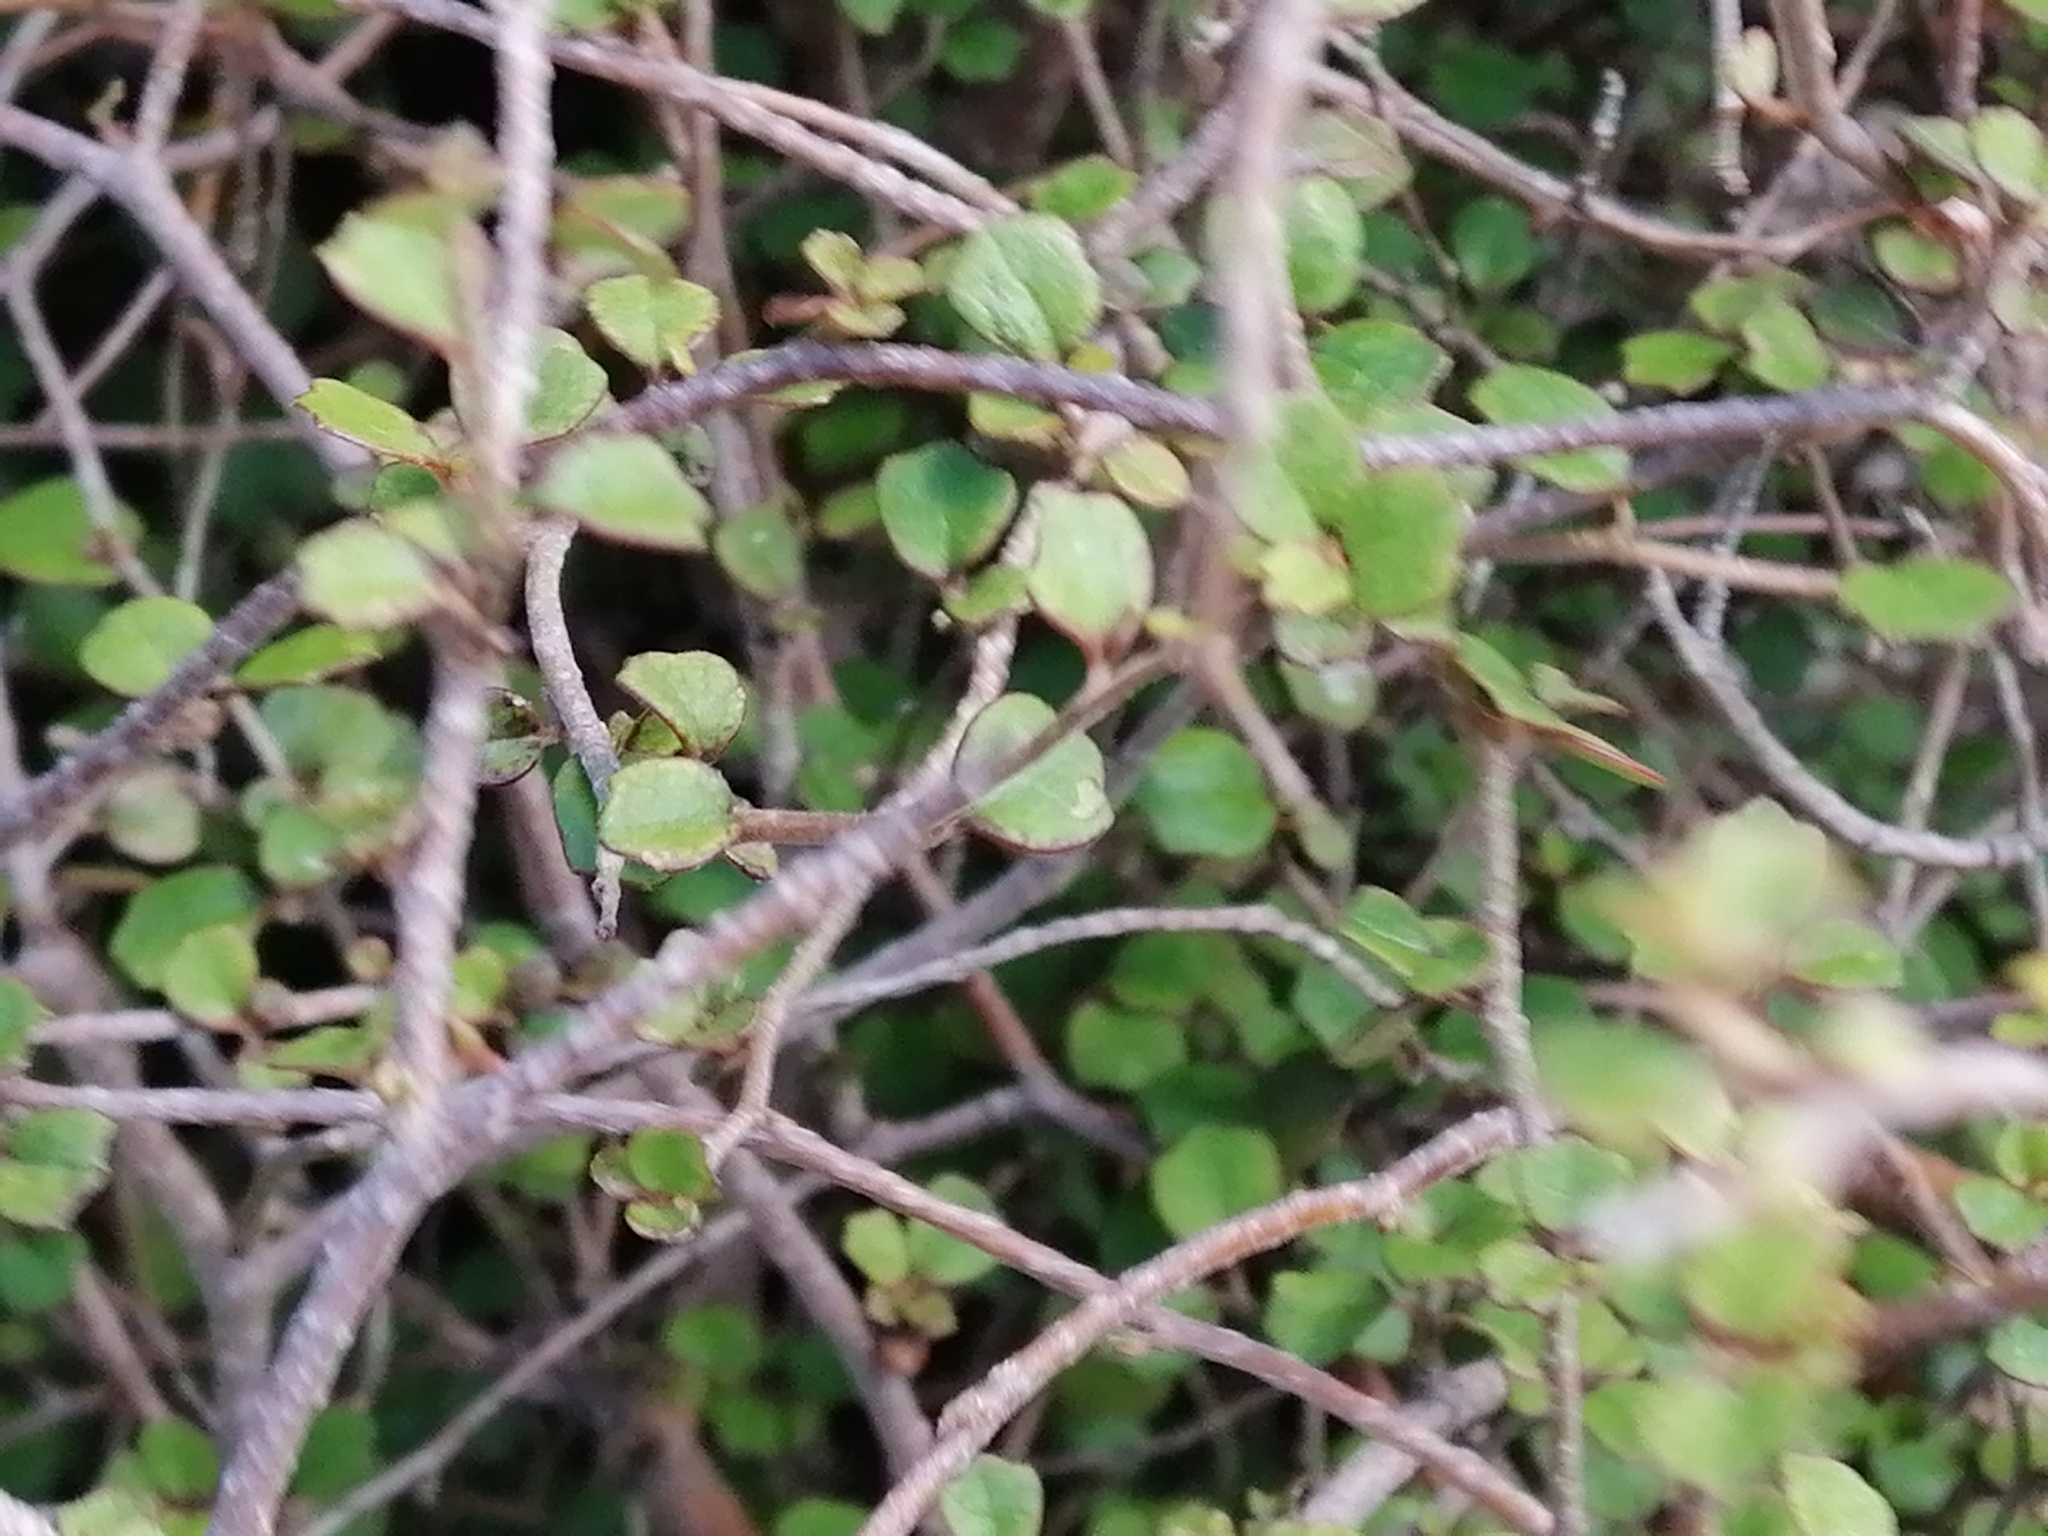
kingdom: Plantae
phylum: Tracheophyta
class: Magnoliopsida
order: Apiales
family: Pennantiaceae
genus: Pennantia
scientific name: Pennantia corymbosa
